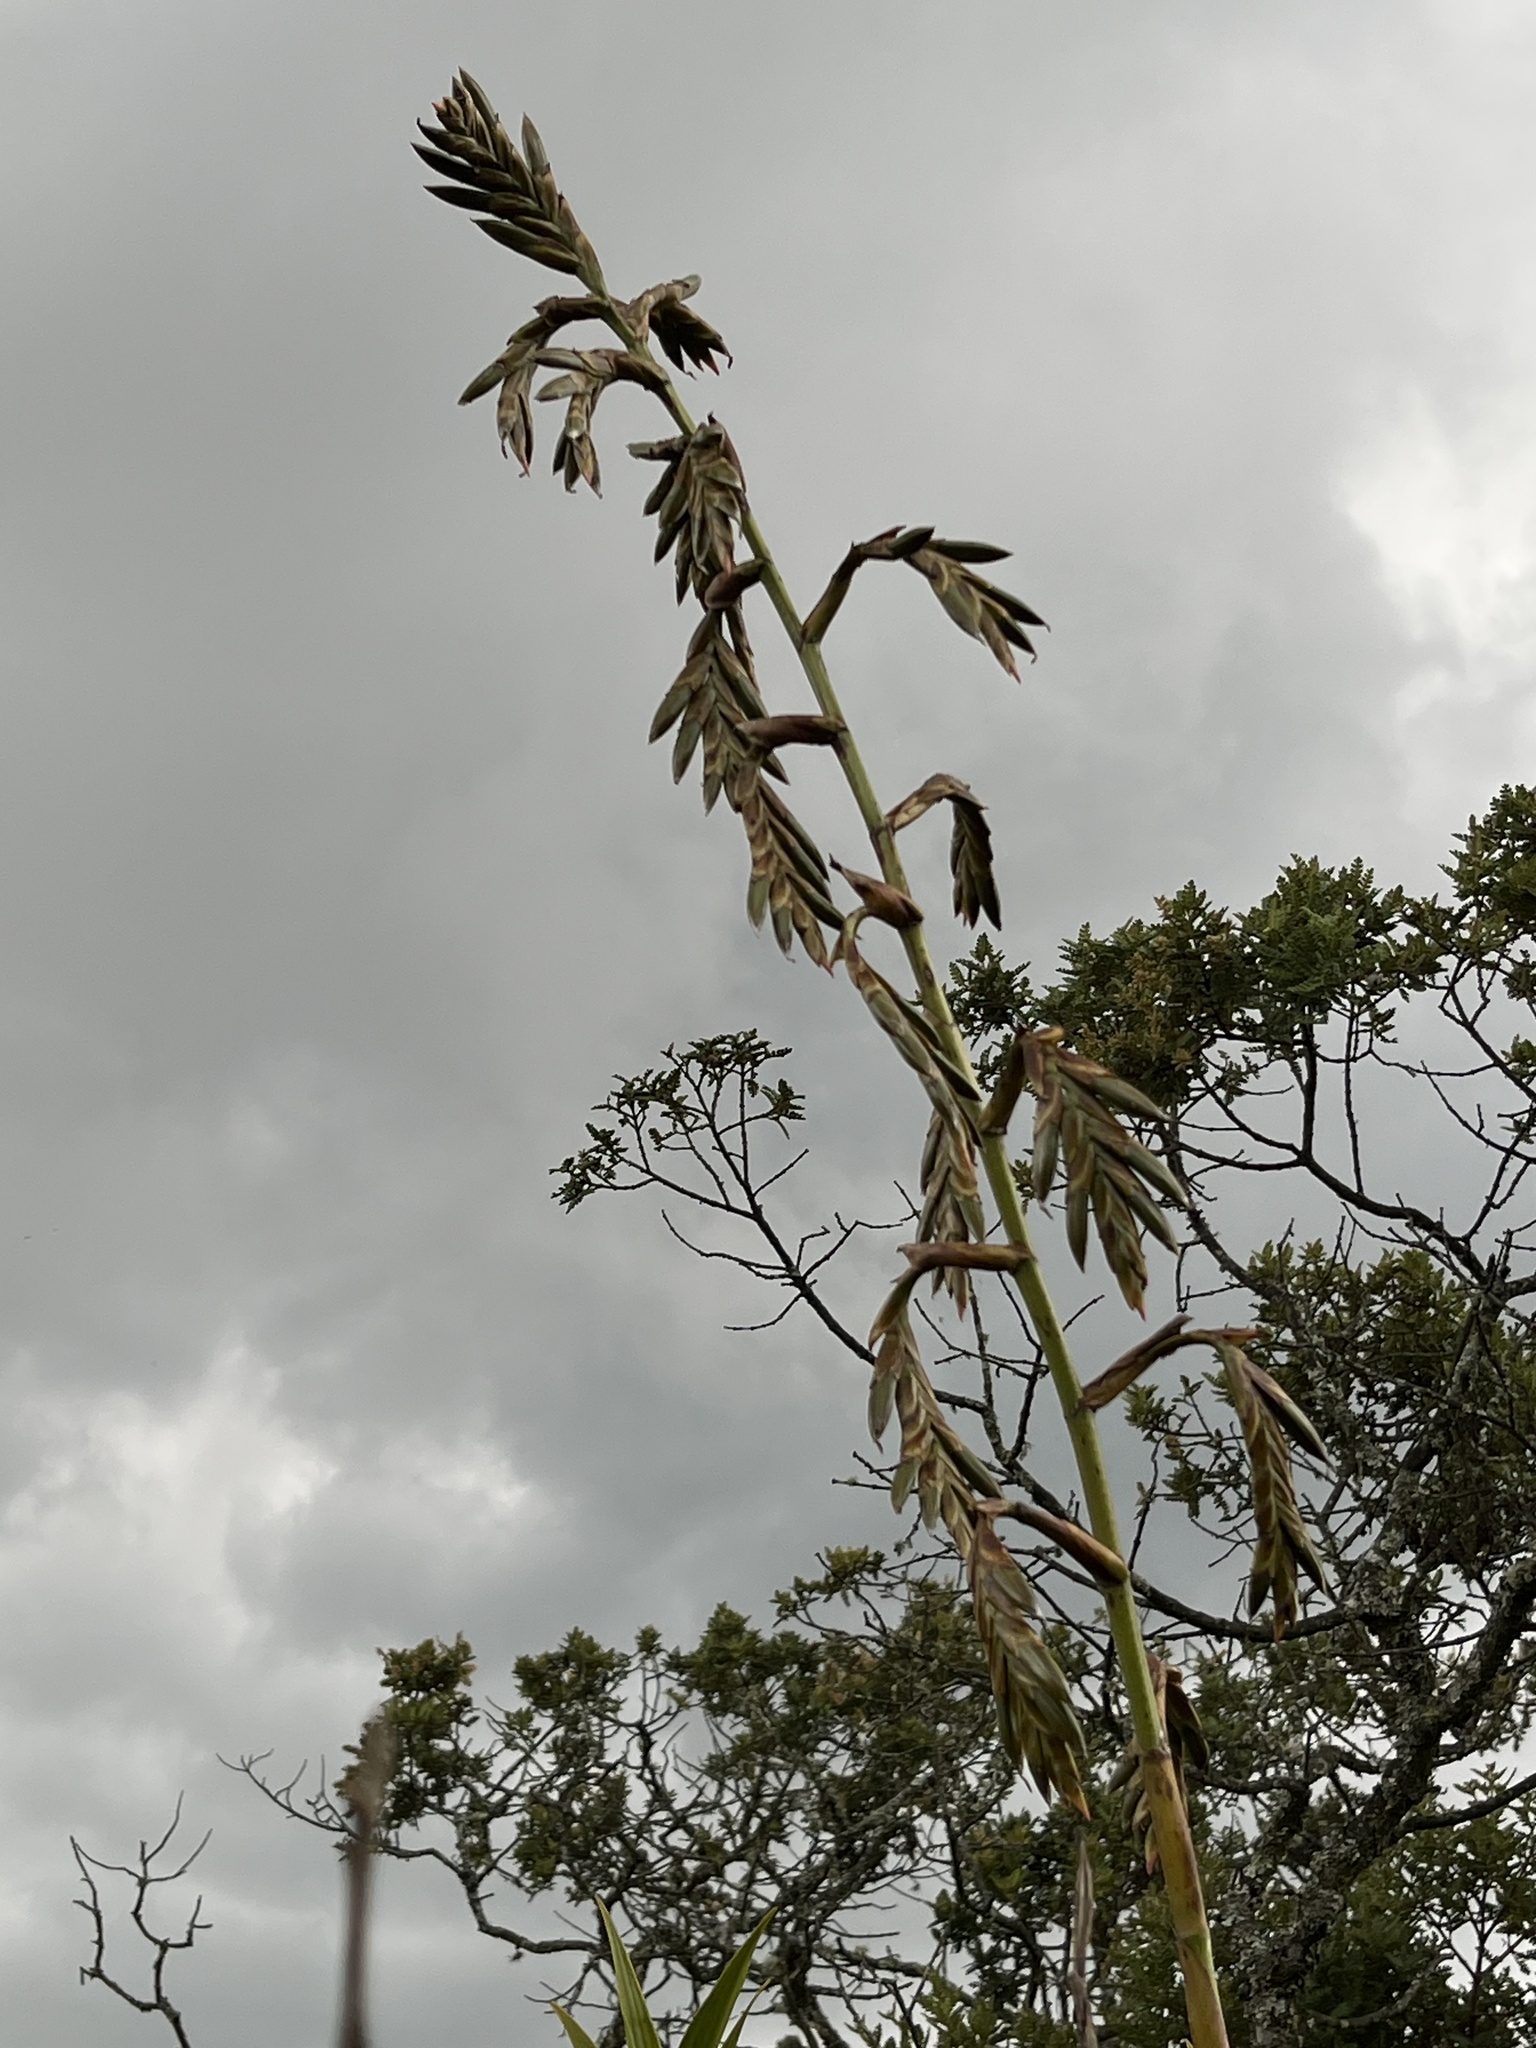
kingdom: Plantae
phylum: Tracheophyta
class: Liliopsida
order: Poales
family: Bromeliaceae
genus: Tillandsia
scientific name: Tillandsia denudata
